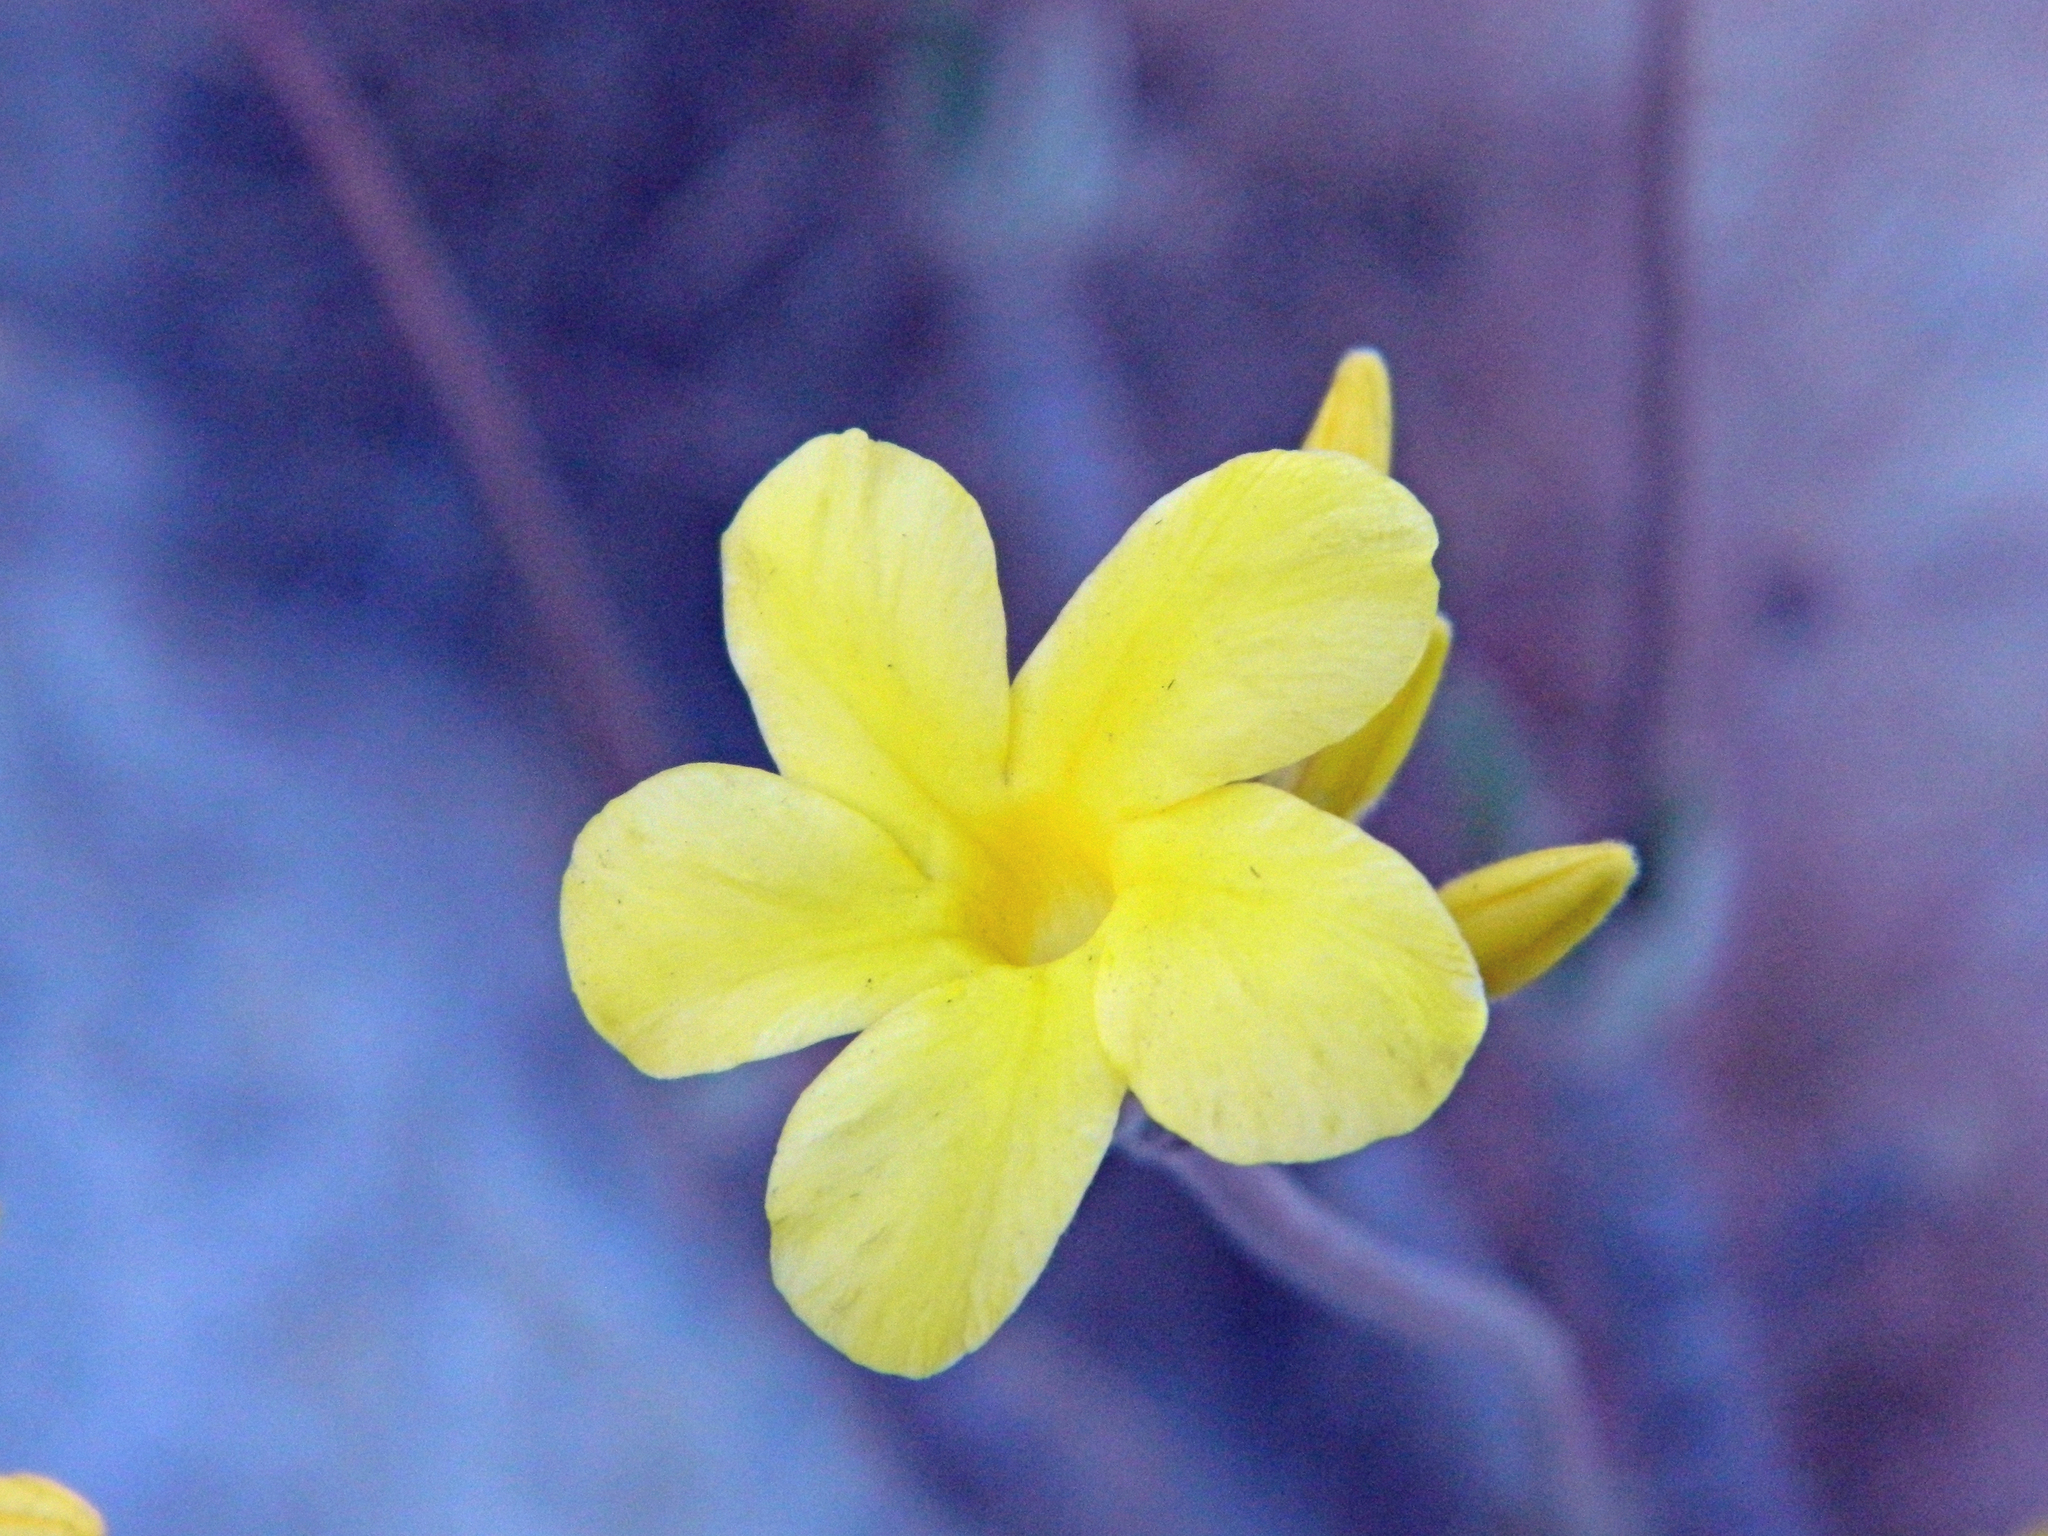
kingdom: Plantae
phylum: Tracheophyta
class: Magnoliopsida
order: Gentianales
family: Apocynaceae
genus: Pachypodium
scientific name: Pachypodium rosulatum
